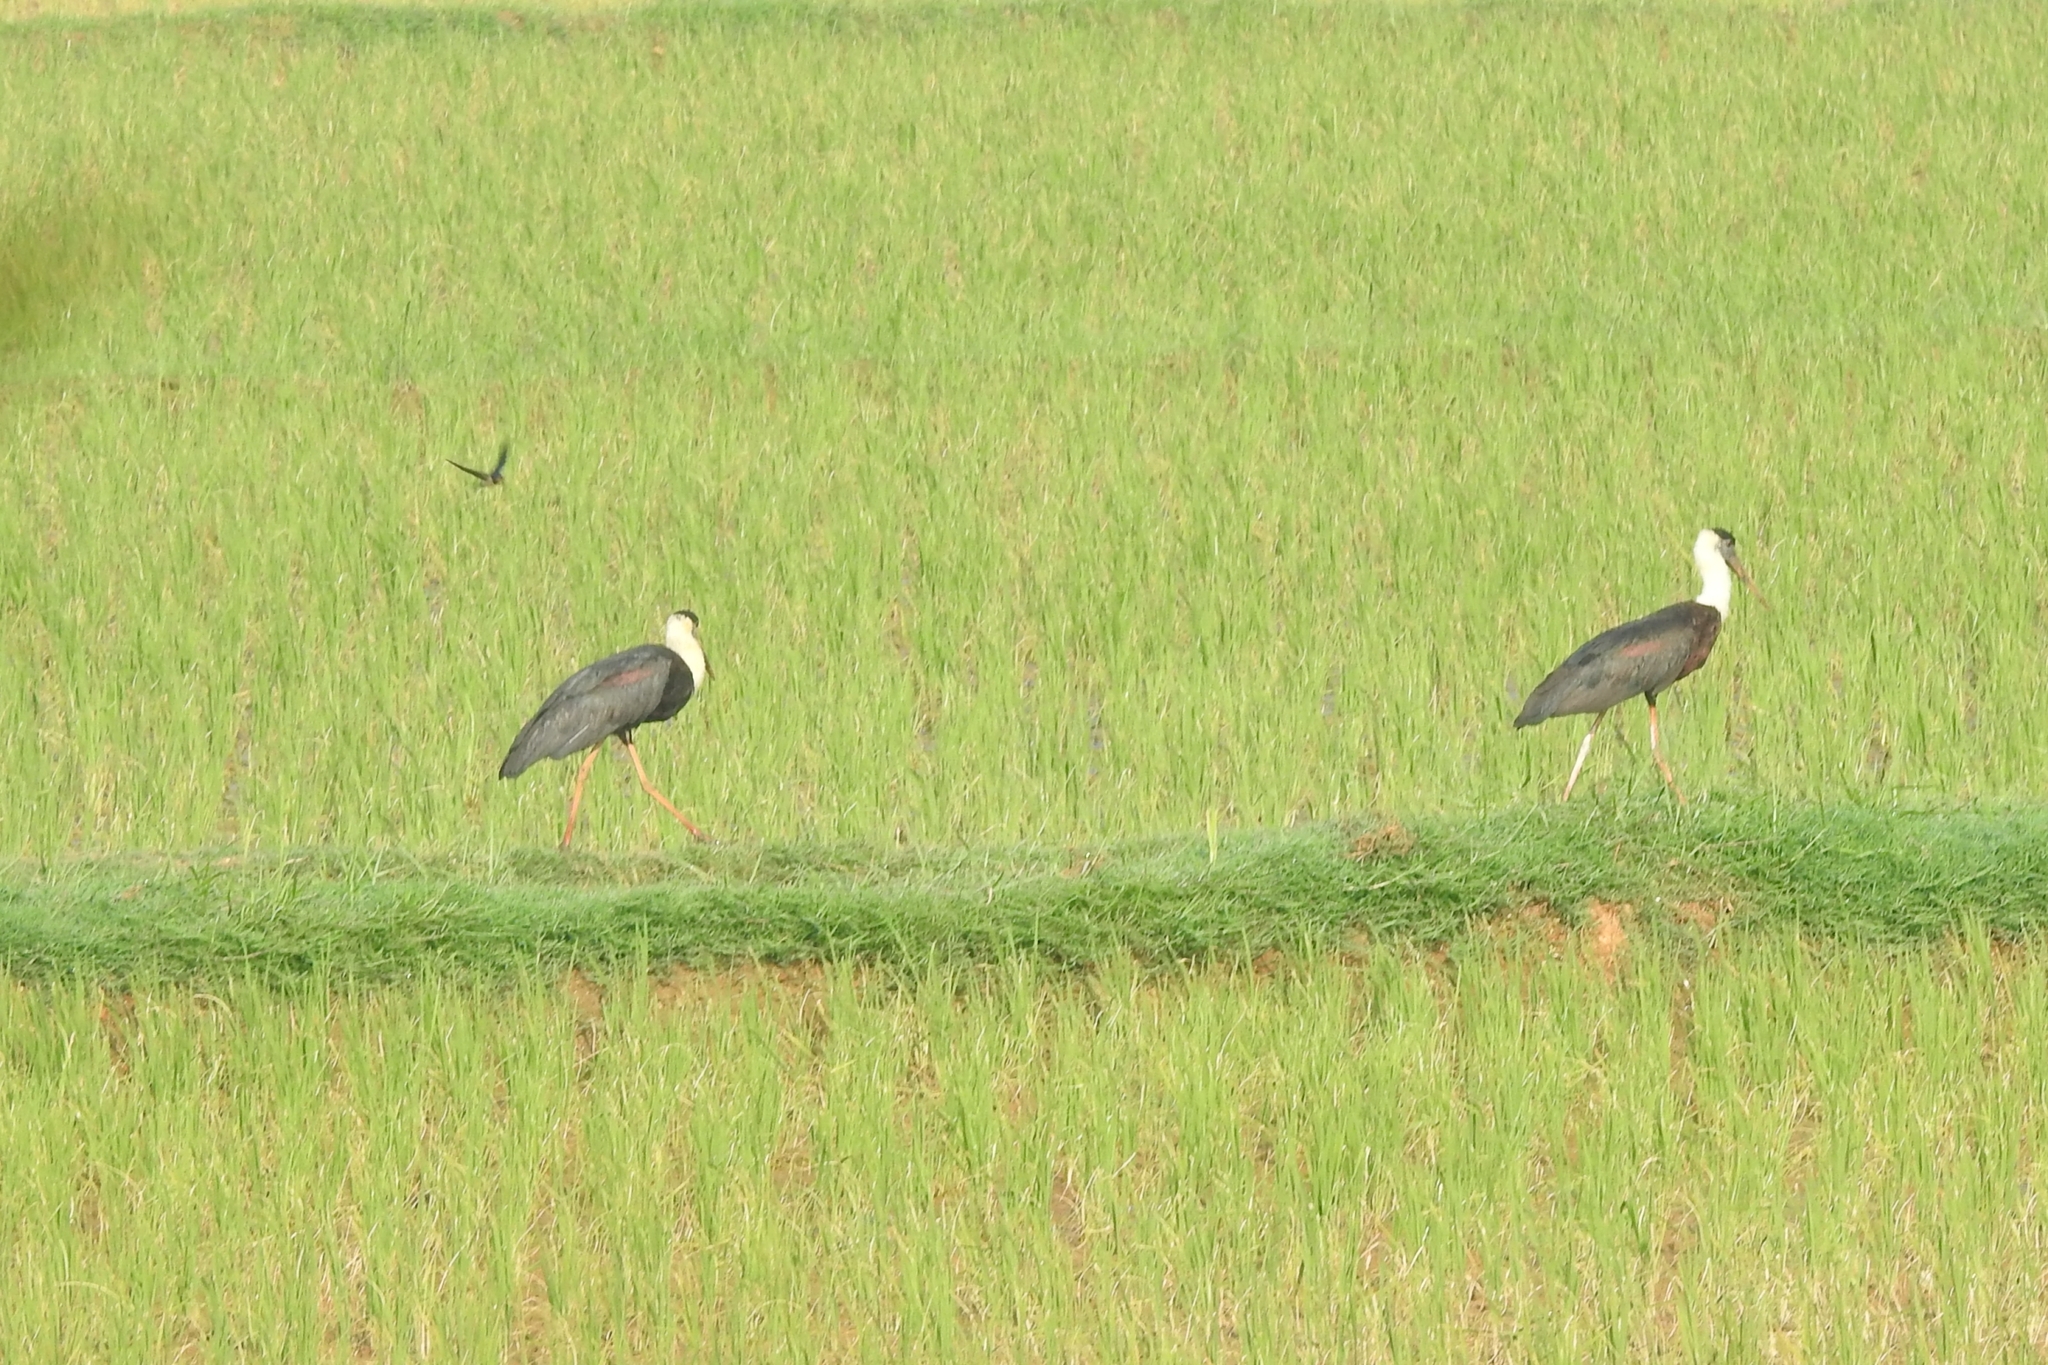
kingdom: Animalia
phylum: Chordata
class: Aves
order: Ciconiiformes
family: Ciconiidae
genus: Ciconia
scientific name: Ciconia episcopus
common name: Woolly-necked stork
